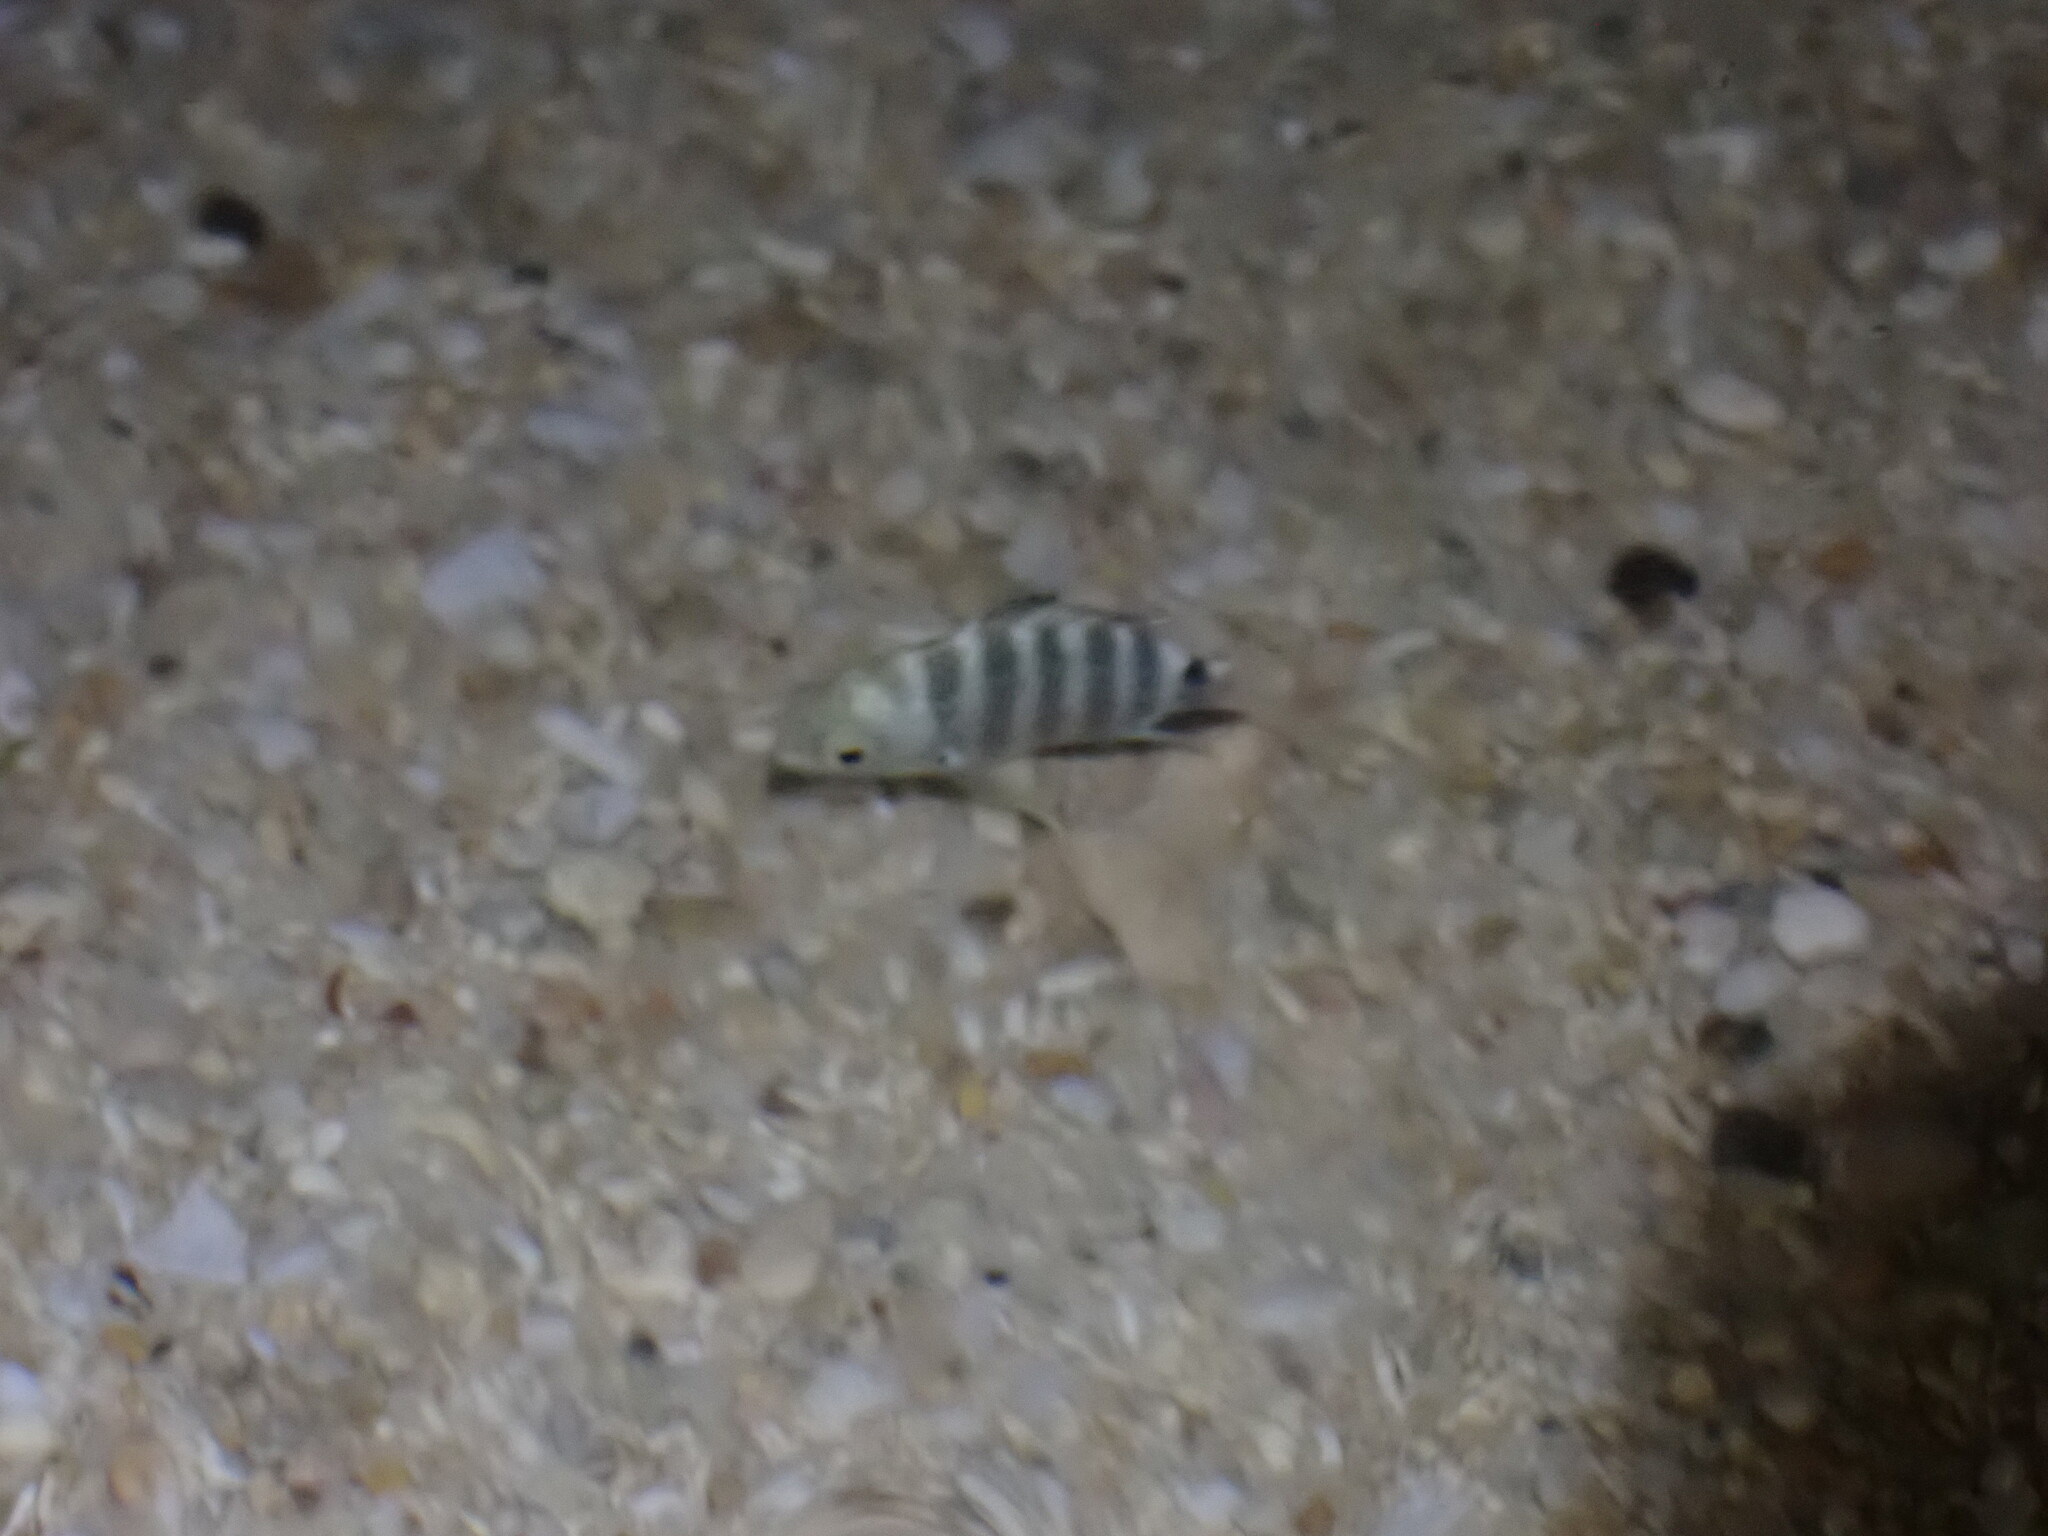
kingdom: Animalia
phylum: Chordata
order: Perciformes
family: Pomacentridae
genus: Abudefduf
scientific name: Abudefduf septemfasciatus
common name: Banded sergeant
